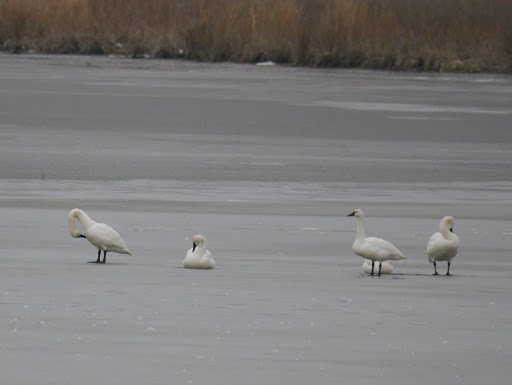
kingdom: Animalia
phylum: Chordata
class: Aves
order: Anseriformes
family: Anatidae
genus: Cygnus
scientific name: Cygnus columbianus
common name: Tundra swan
